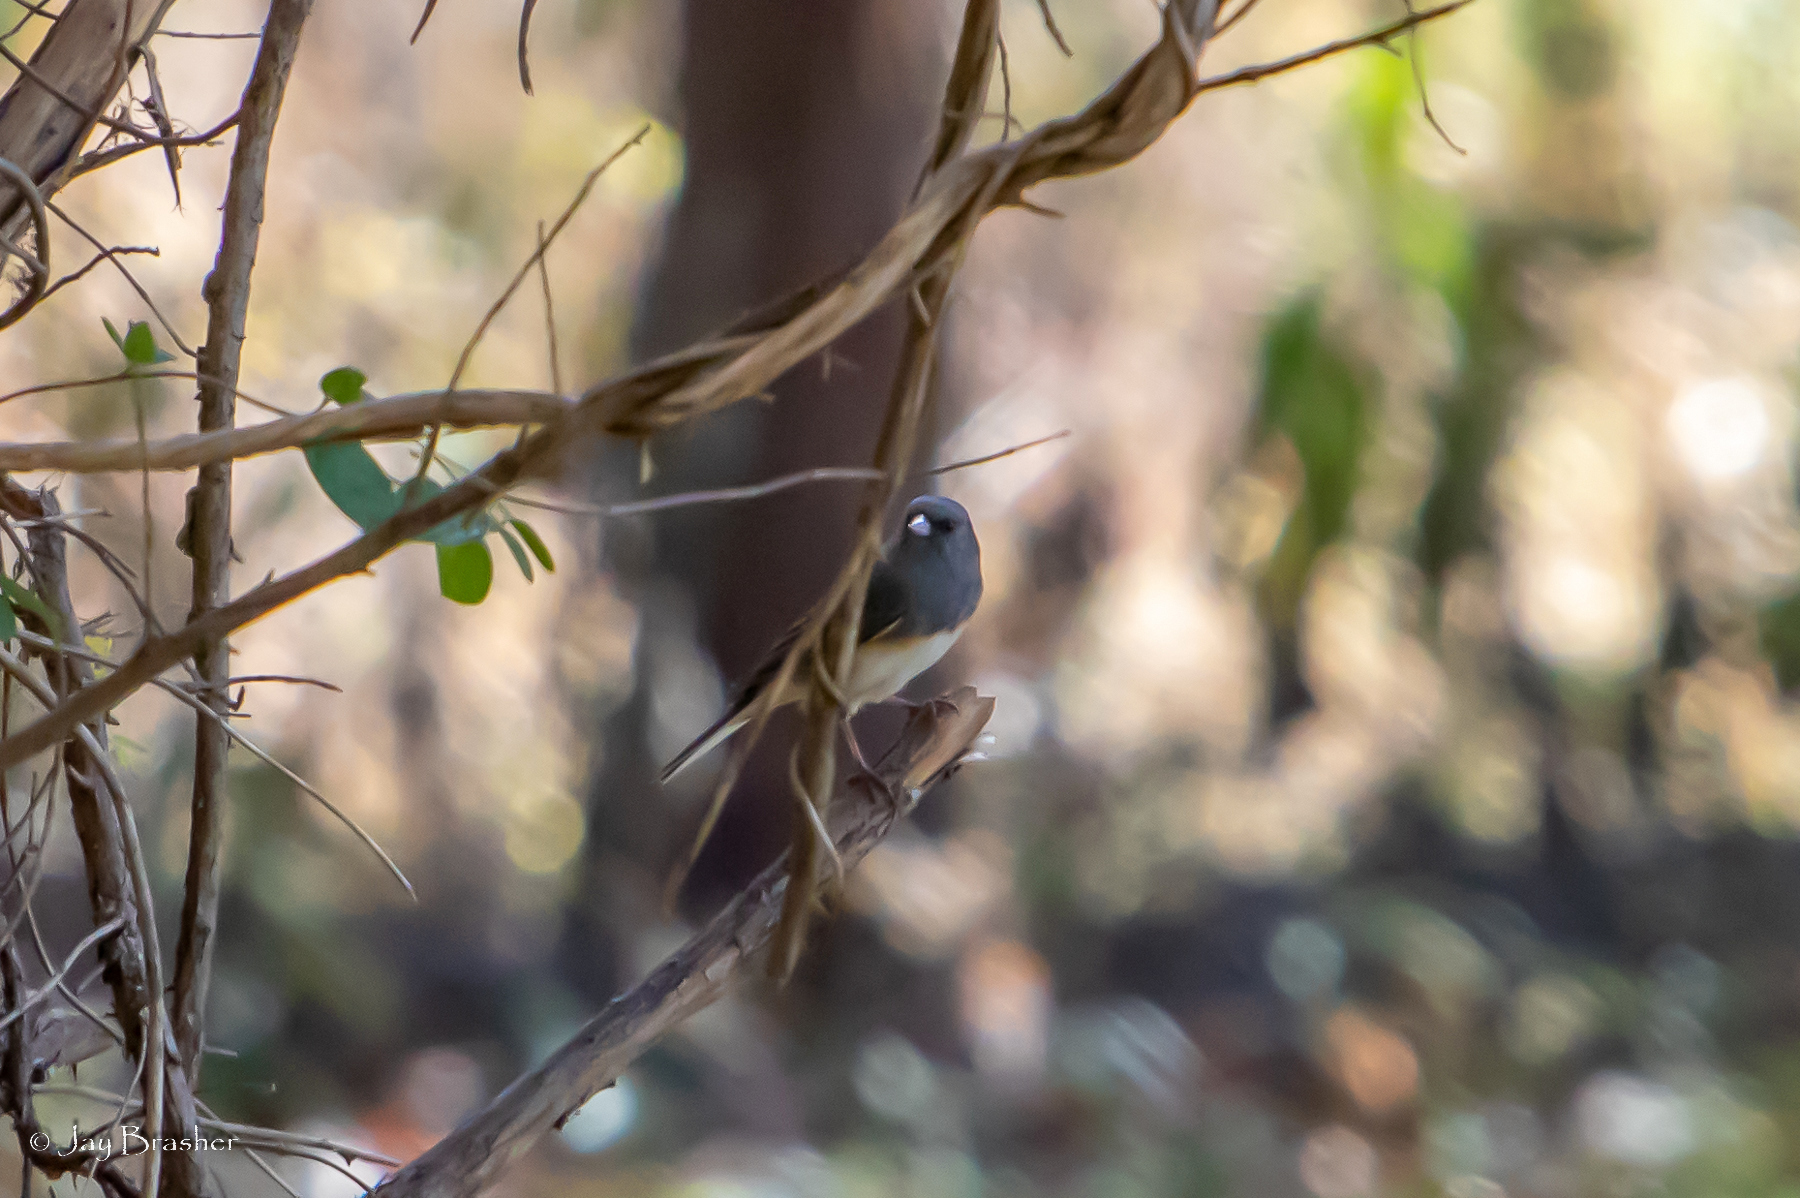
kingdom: Animalia
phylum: Chordata
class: Aves
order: Passeriformes
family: Passerellidae
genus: Junco
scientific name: Junco hyemalis
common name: Dark-eyed junco
